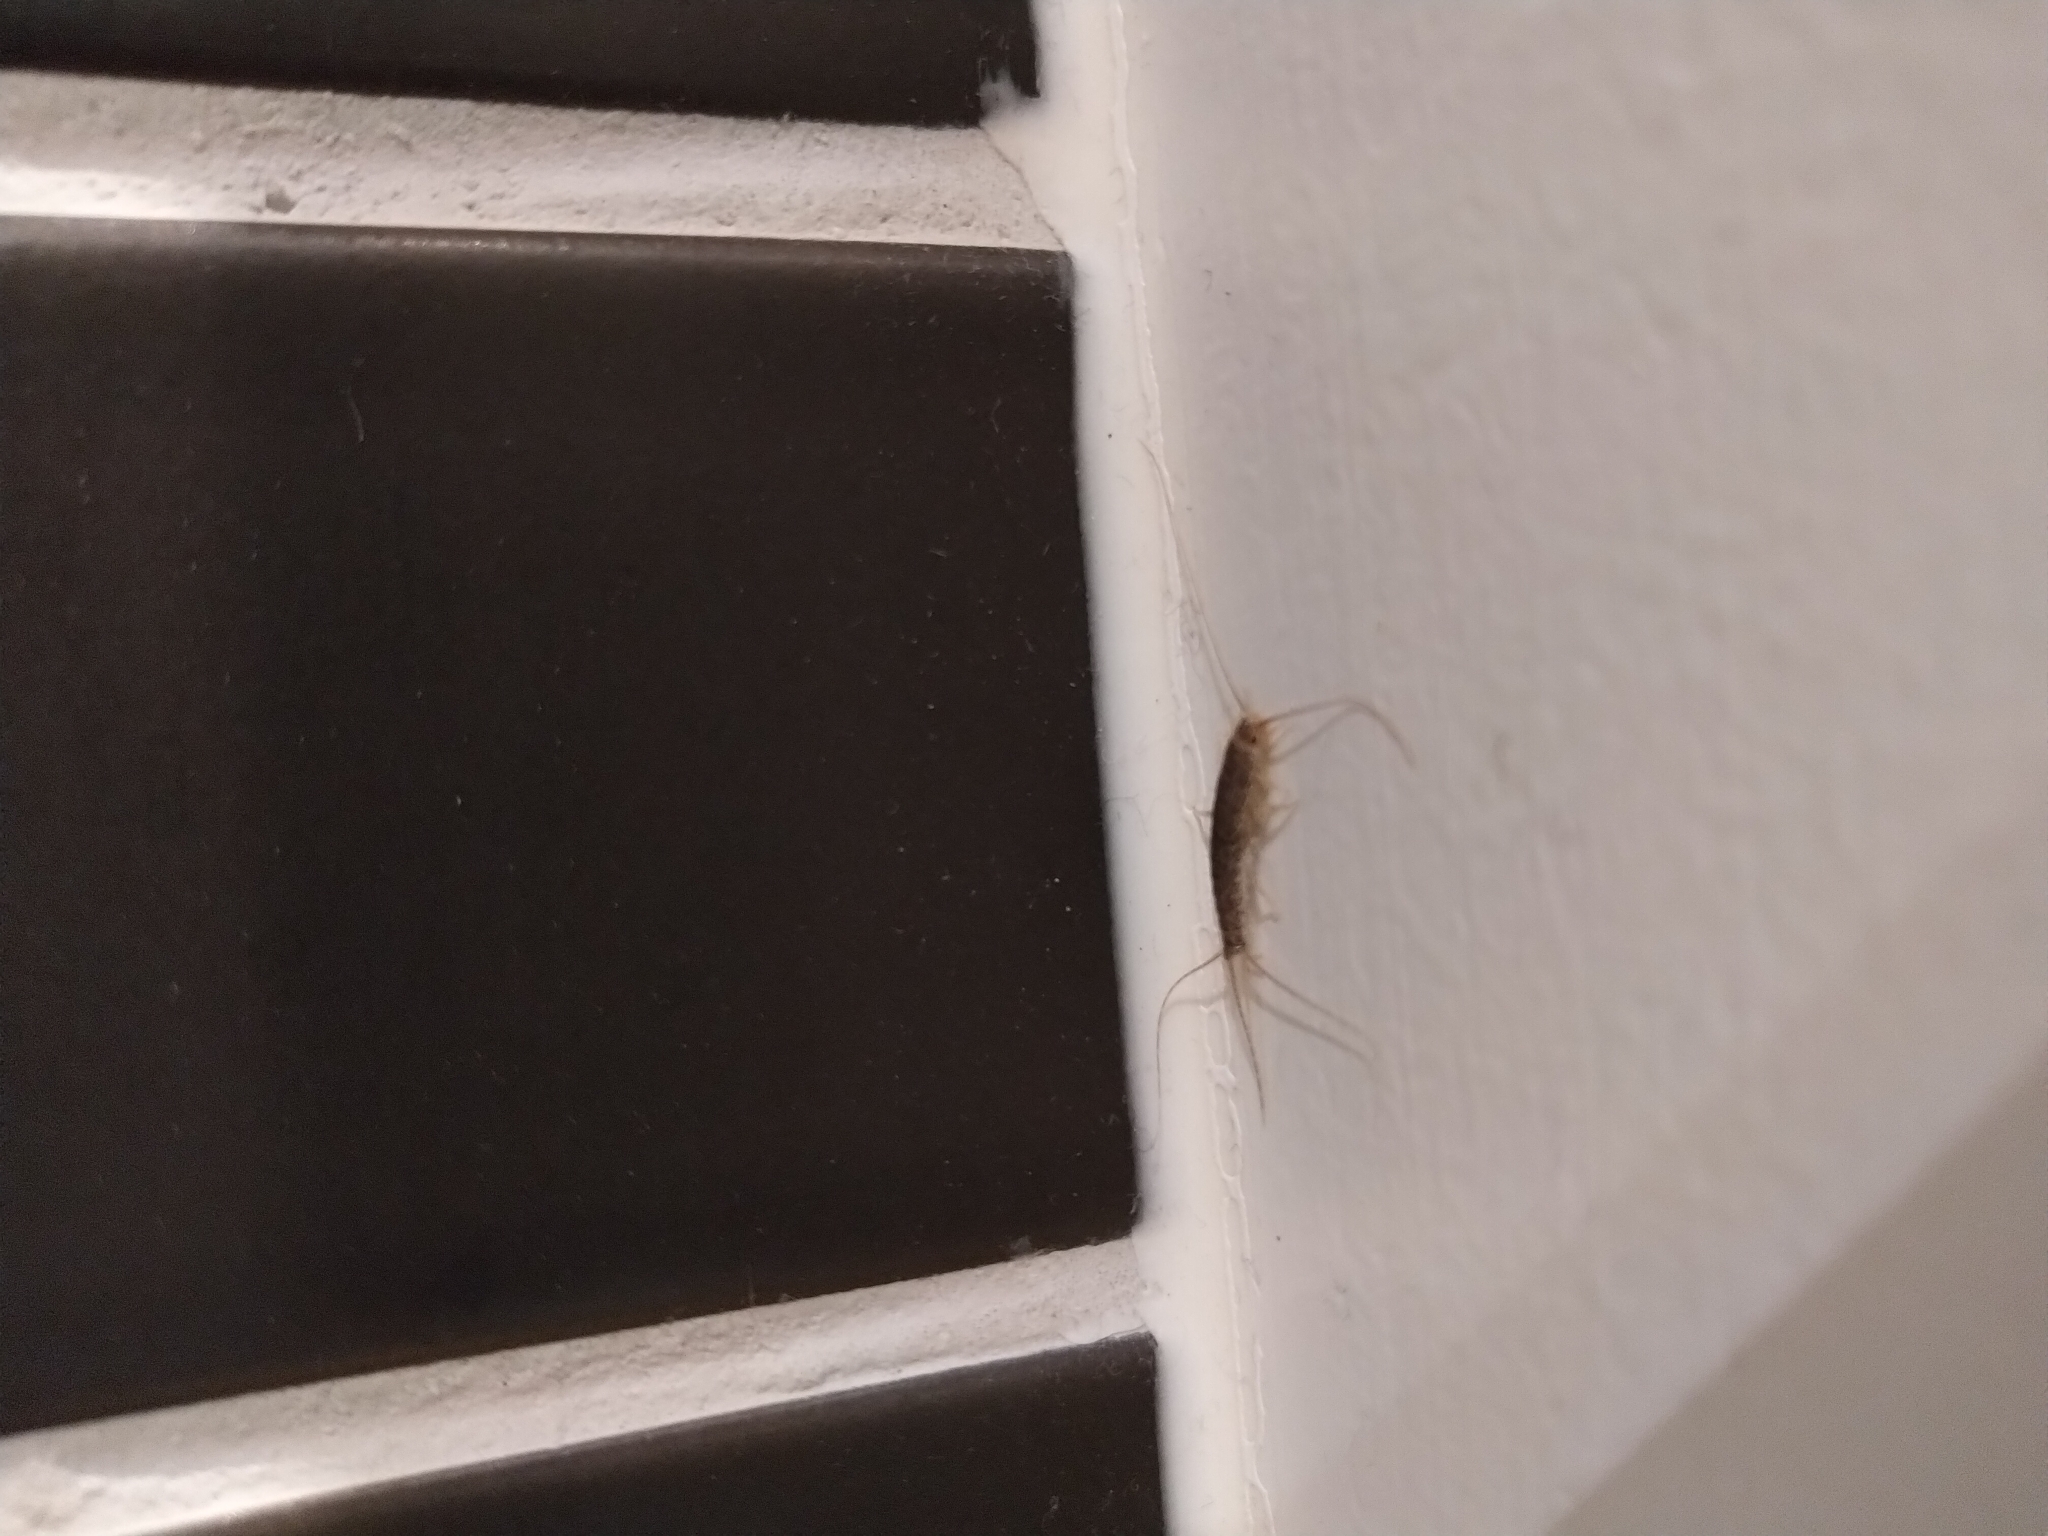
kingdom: Animalia
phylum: Arthropoda
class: Insecta
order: Zygentoma
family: Lepismatidae
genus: Ctenolepisma
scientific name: Ctenolepisma longicaudatum
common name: Silverfish
